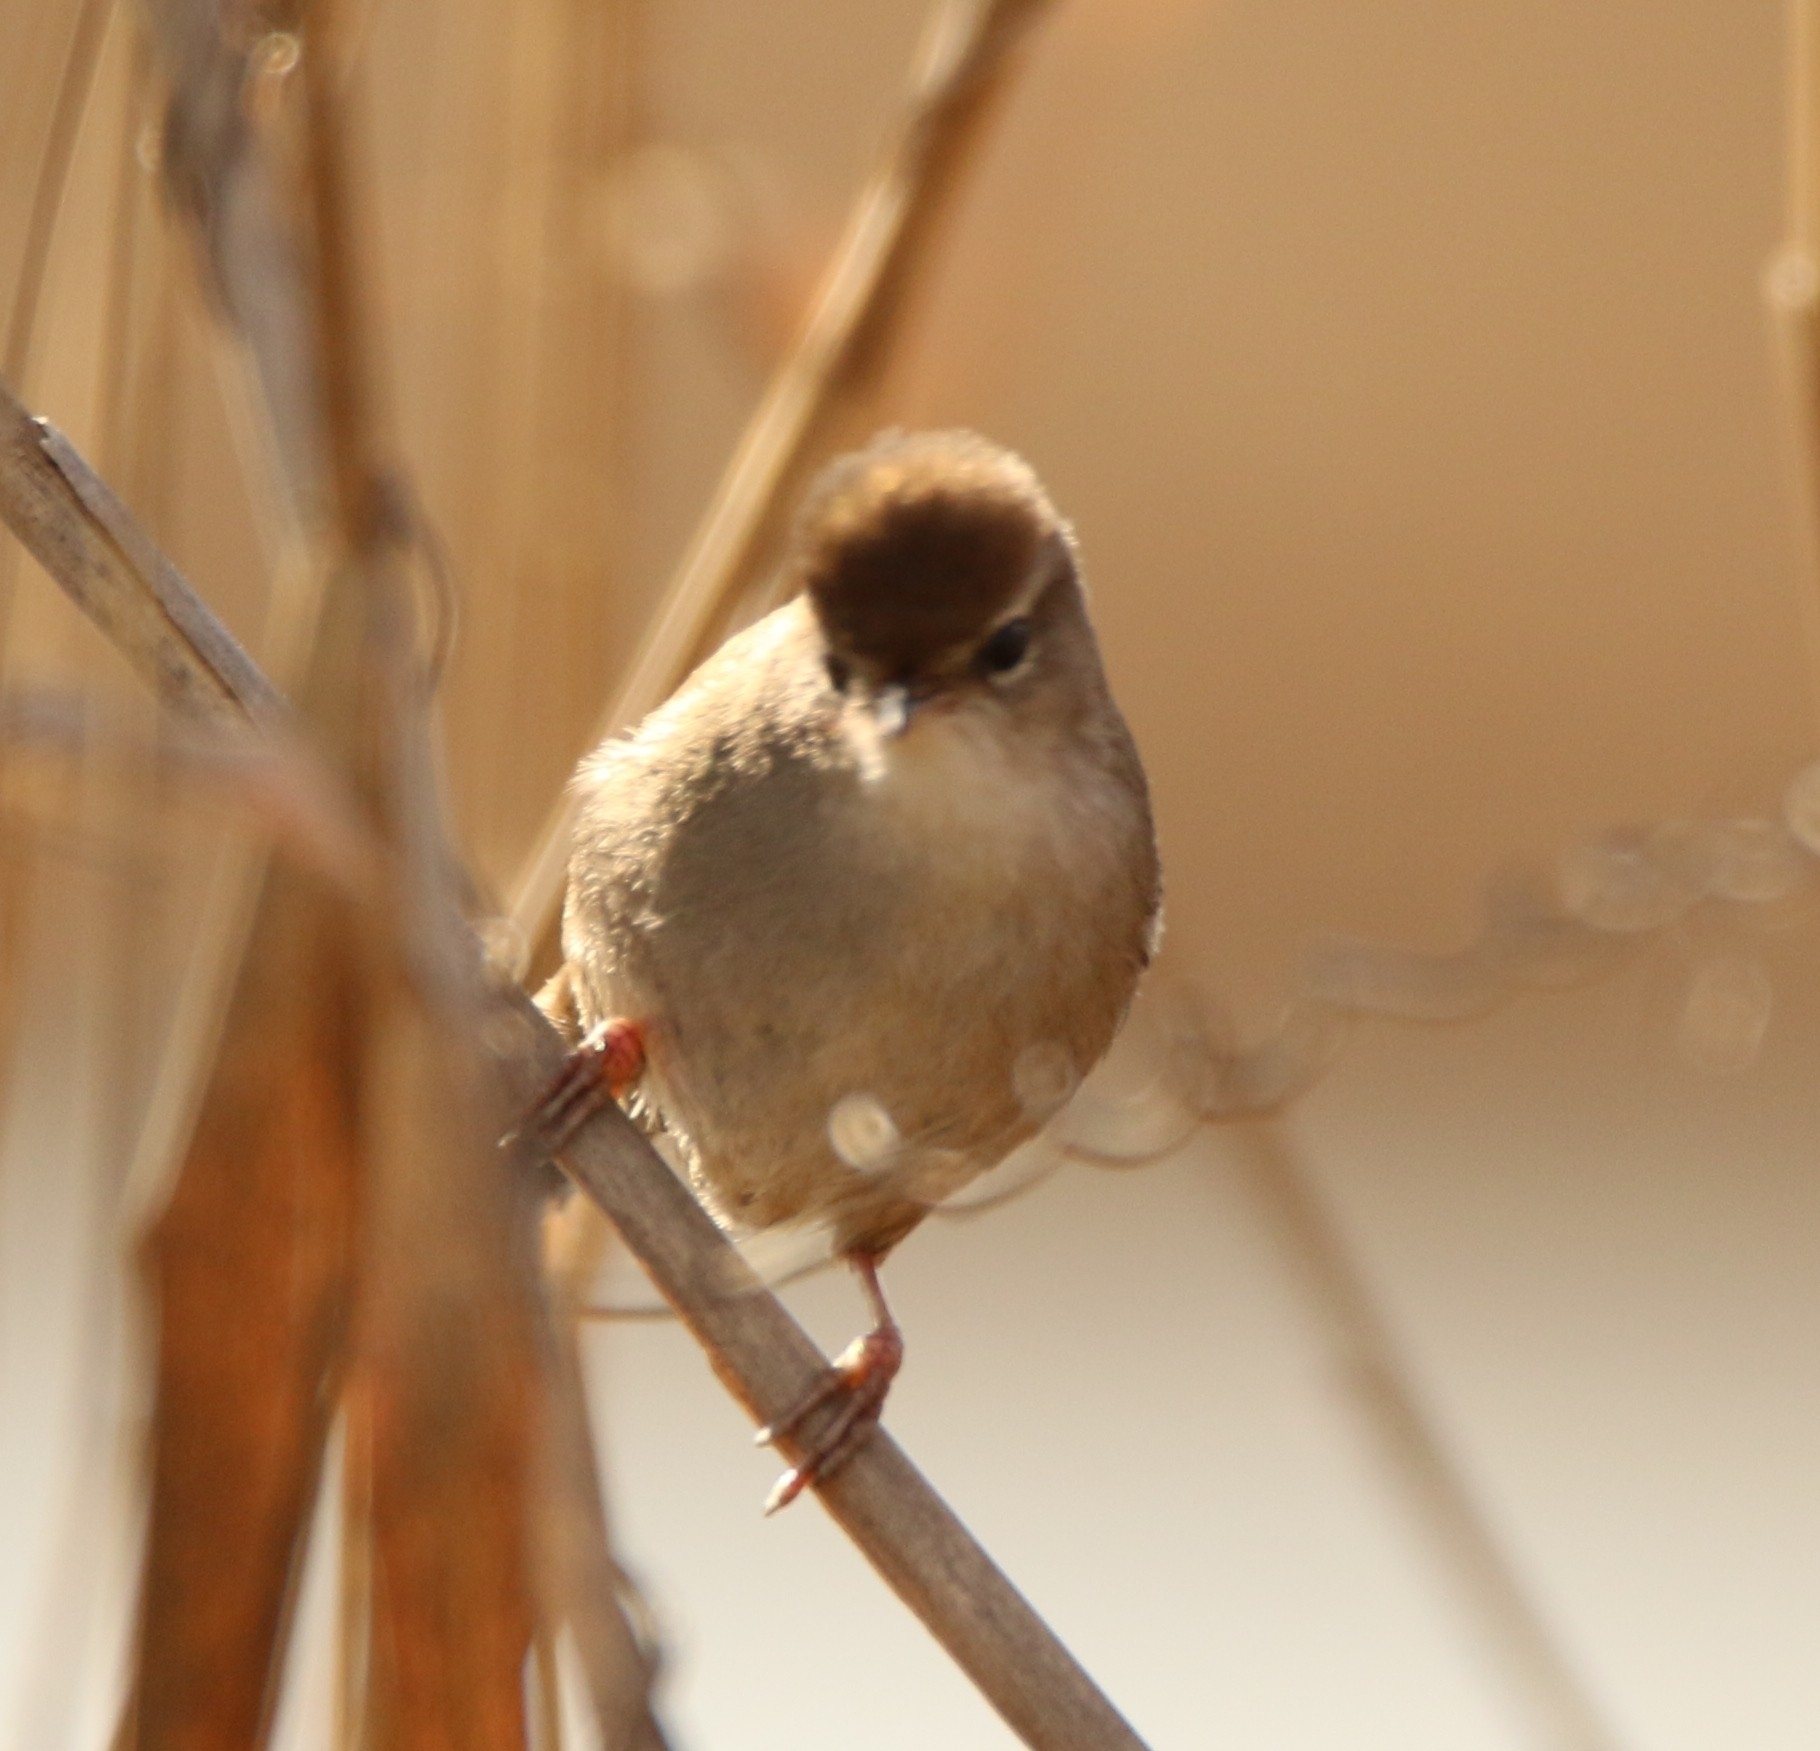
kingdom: Animalia
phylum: Chordata
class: Aves
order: Passeriformes
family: Cettiidae
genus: Cettia
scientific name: Cettia cetti
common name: Cetti's warbler
